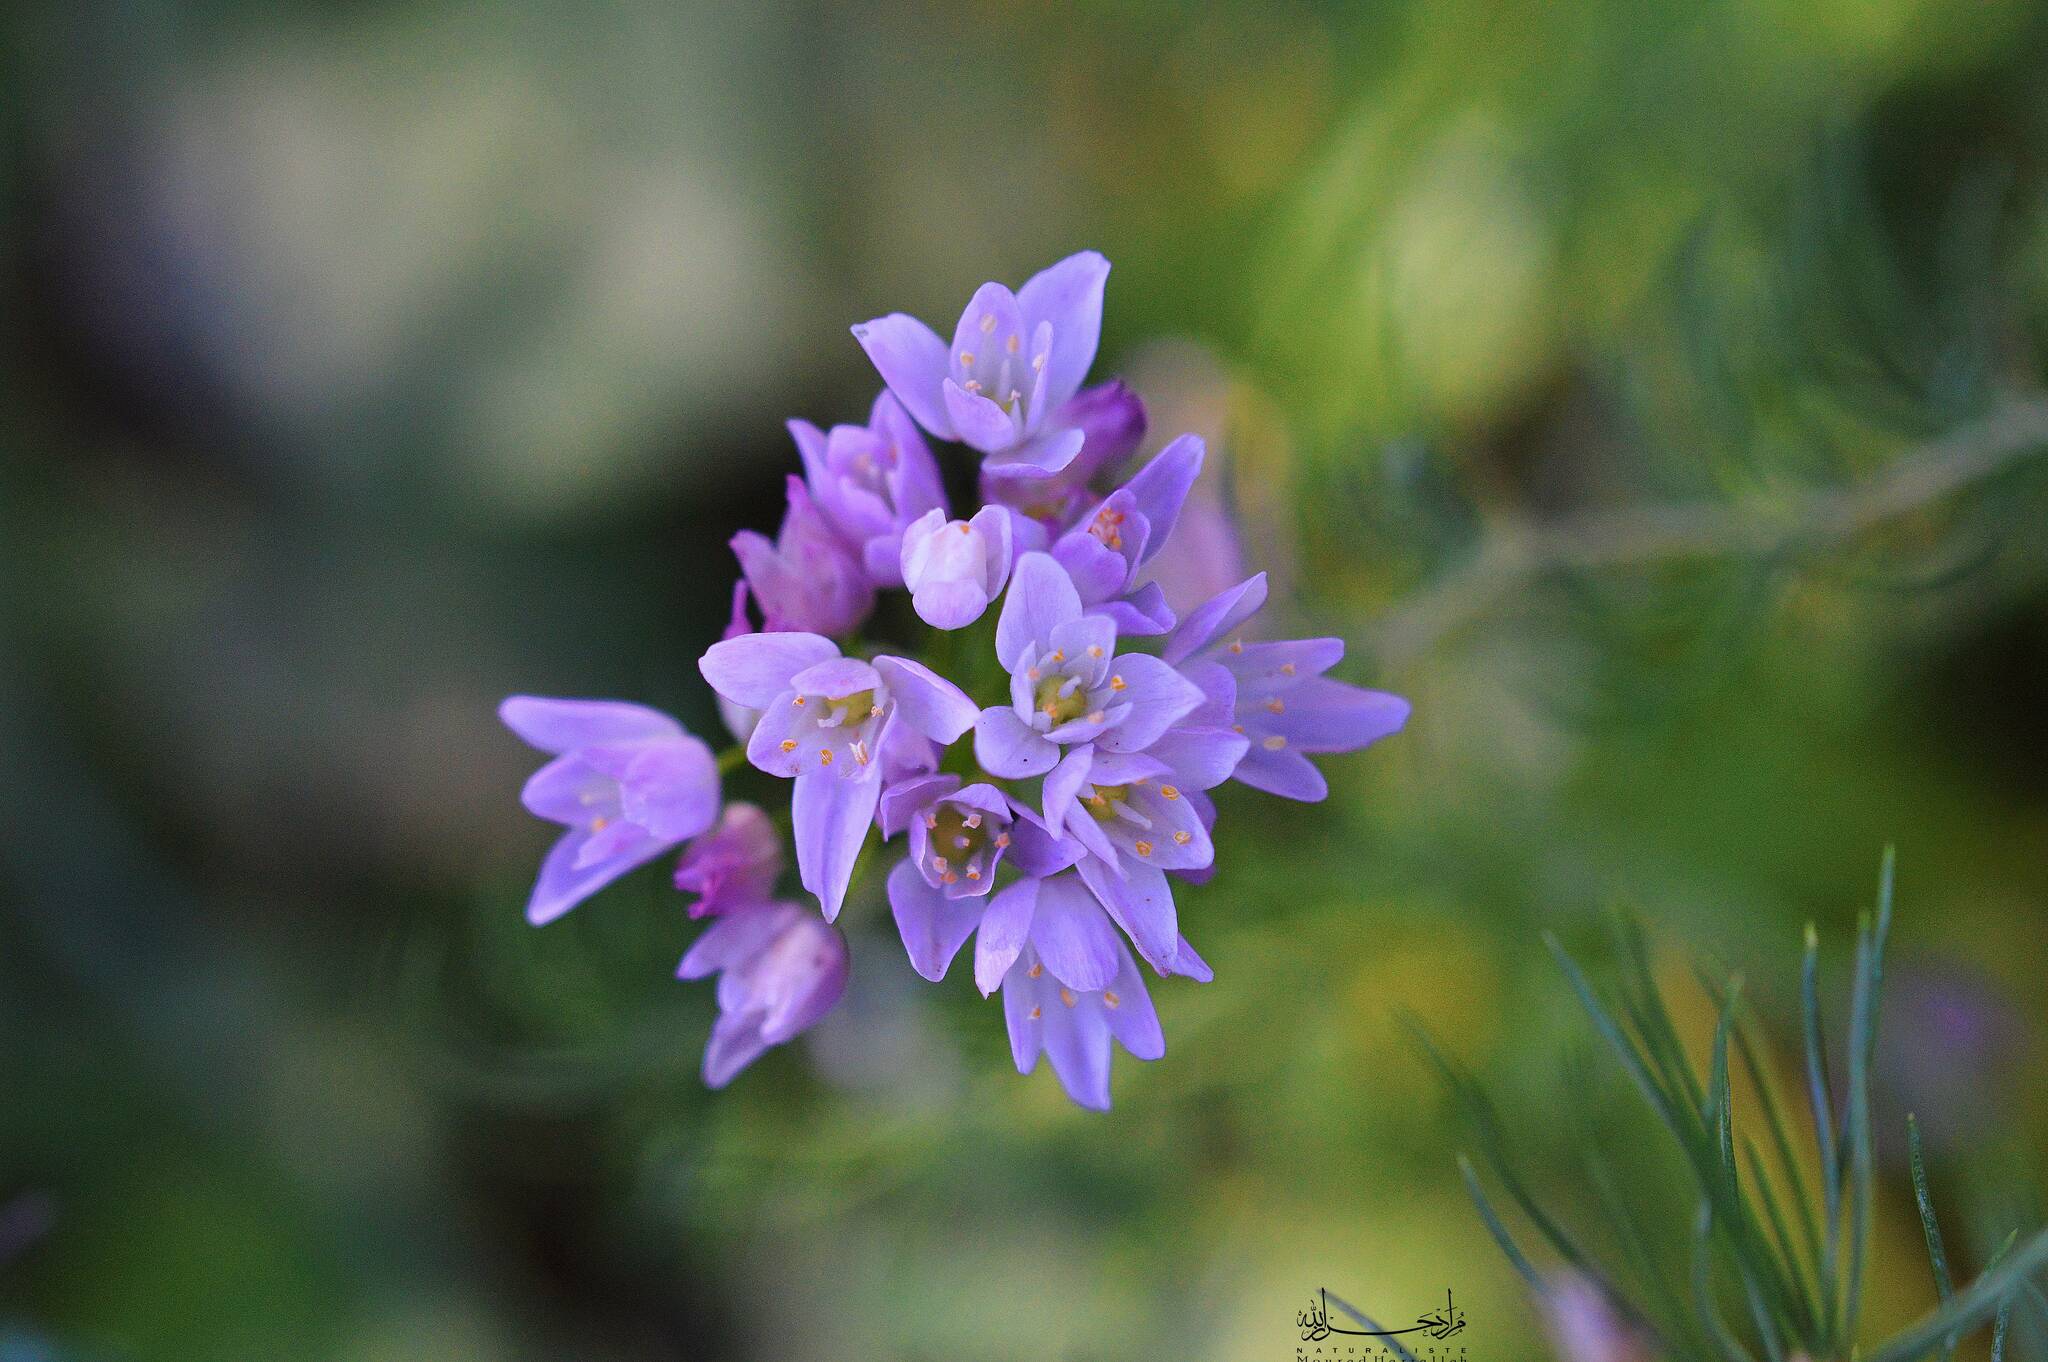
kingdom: Plantae
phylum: Tracheophyta
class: Liliopsida
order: Asparagales
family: Amaryllidaceae
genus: Allium
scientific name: Allium roseum
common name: Rosy garlic
